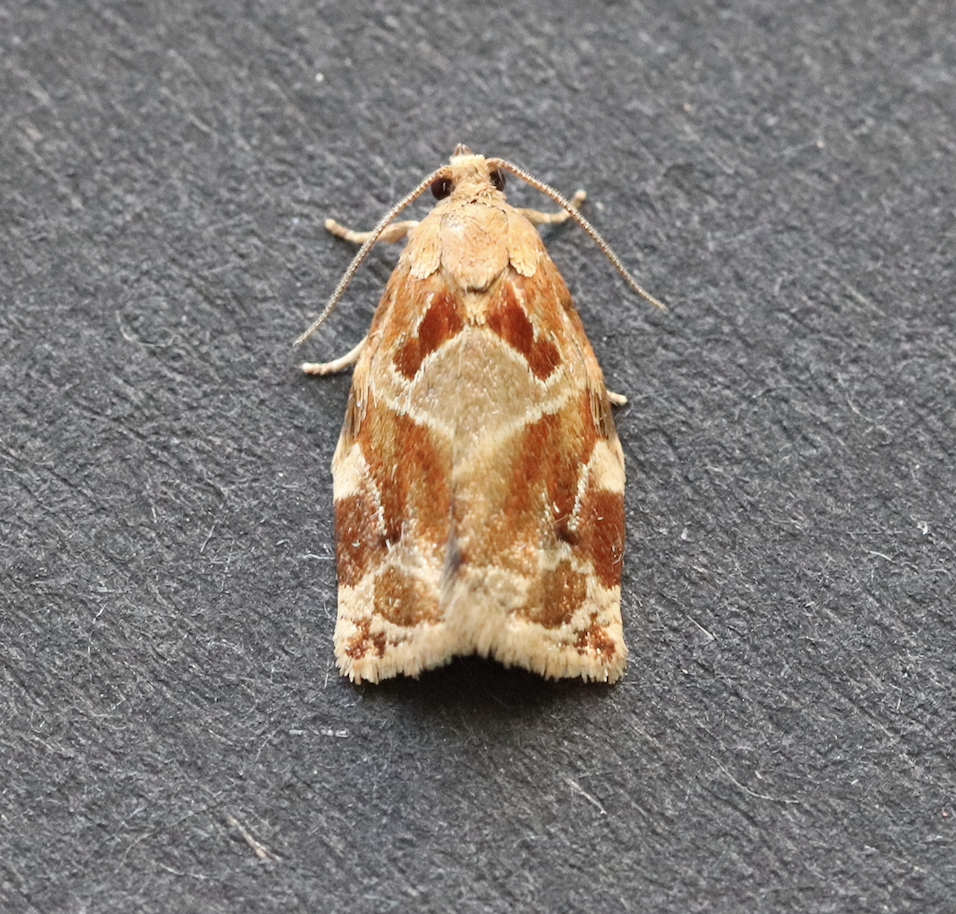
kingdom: Animalia
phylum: Arthropoda
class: Insecta
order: Lepidoptera
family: Tortricidae
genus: Archips
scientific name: Archips xylosteana
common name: Variegated golden tortrix
